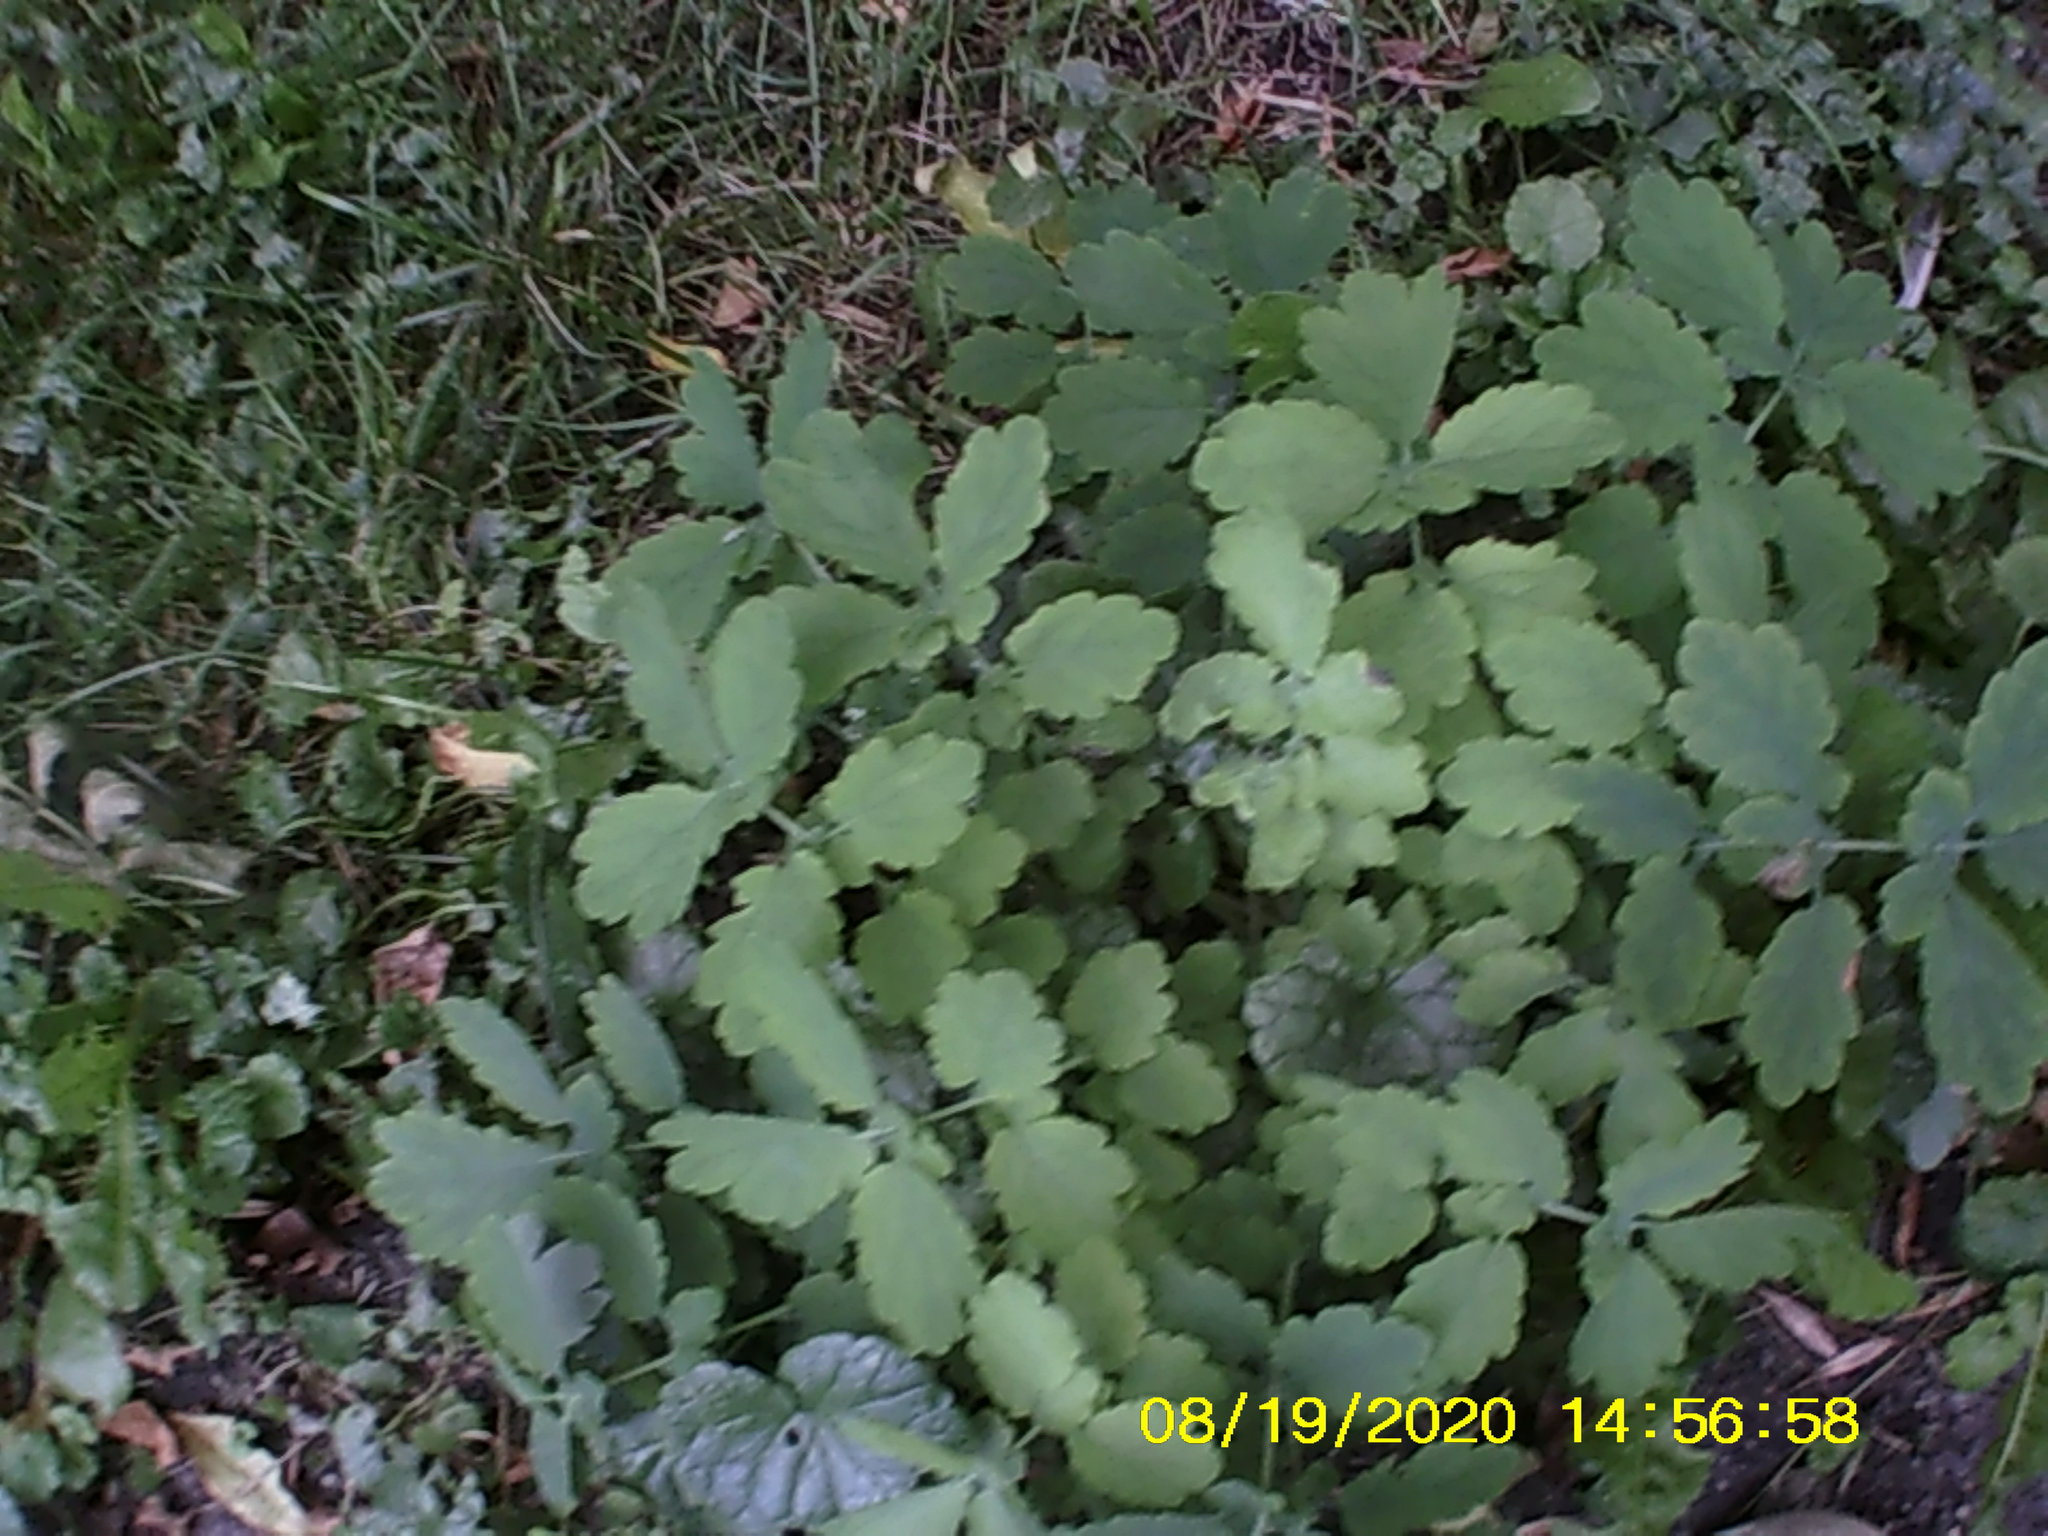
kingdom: Plantae
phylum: Tracheophyta
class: Magnoliopsida
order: Ranunculales
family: Papaveraceae
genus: Chelidonium
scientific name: Chelidonium majus
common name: Greater celandine
